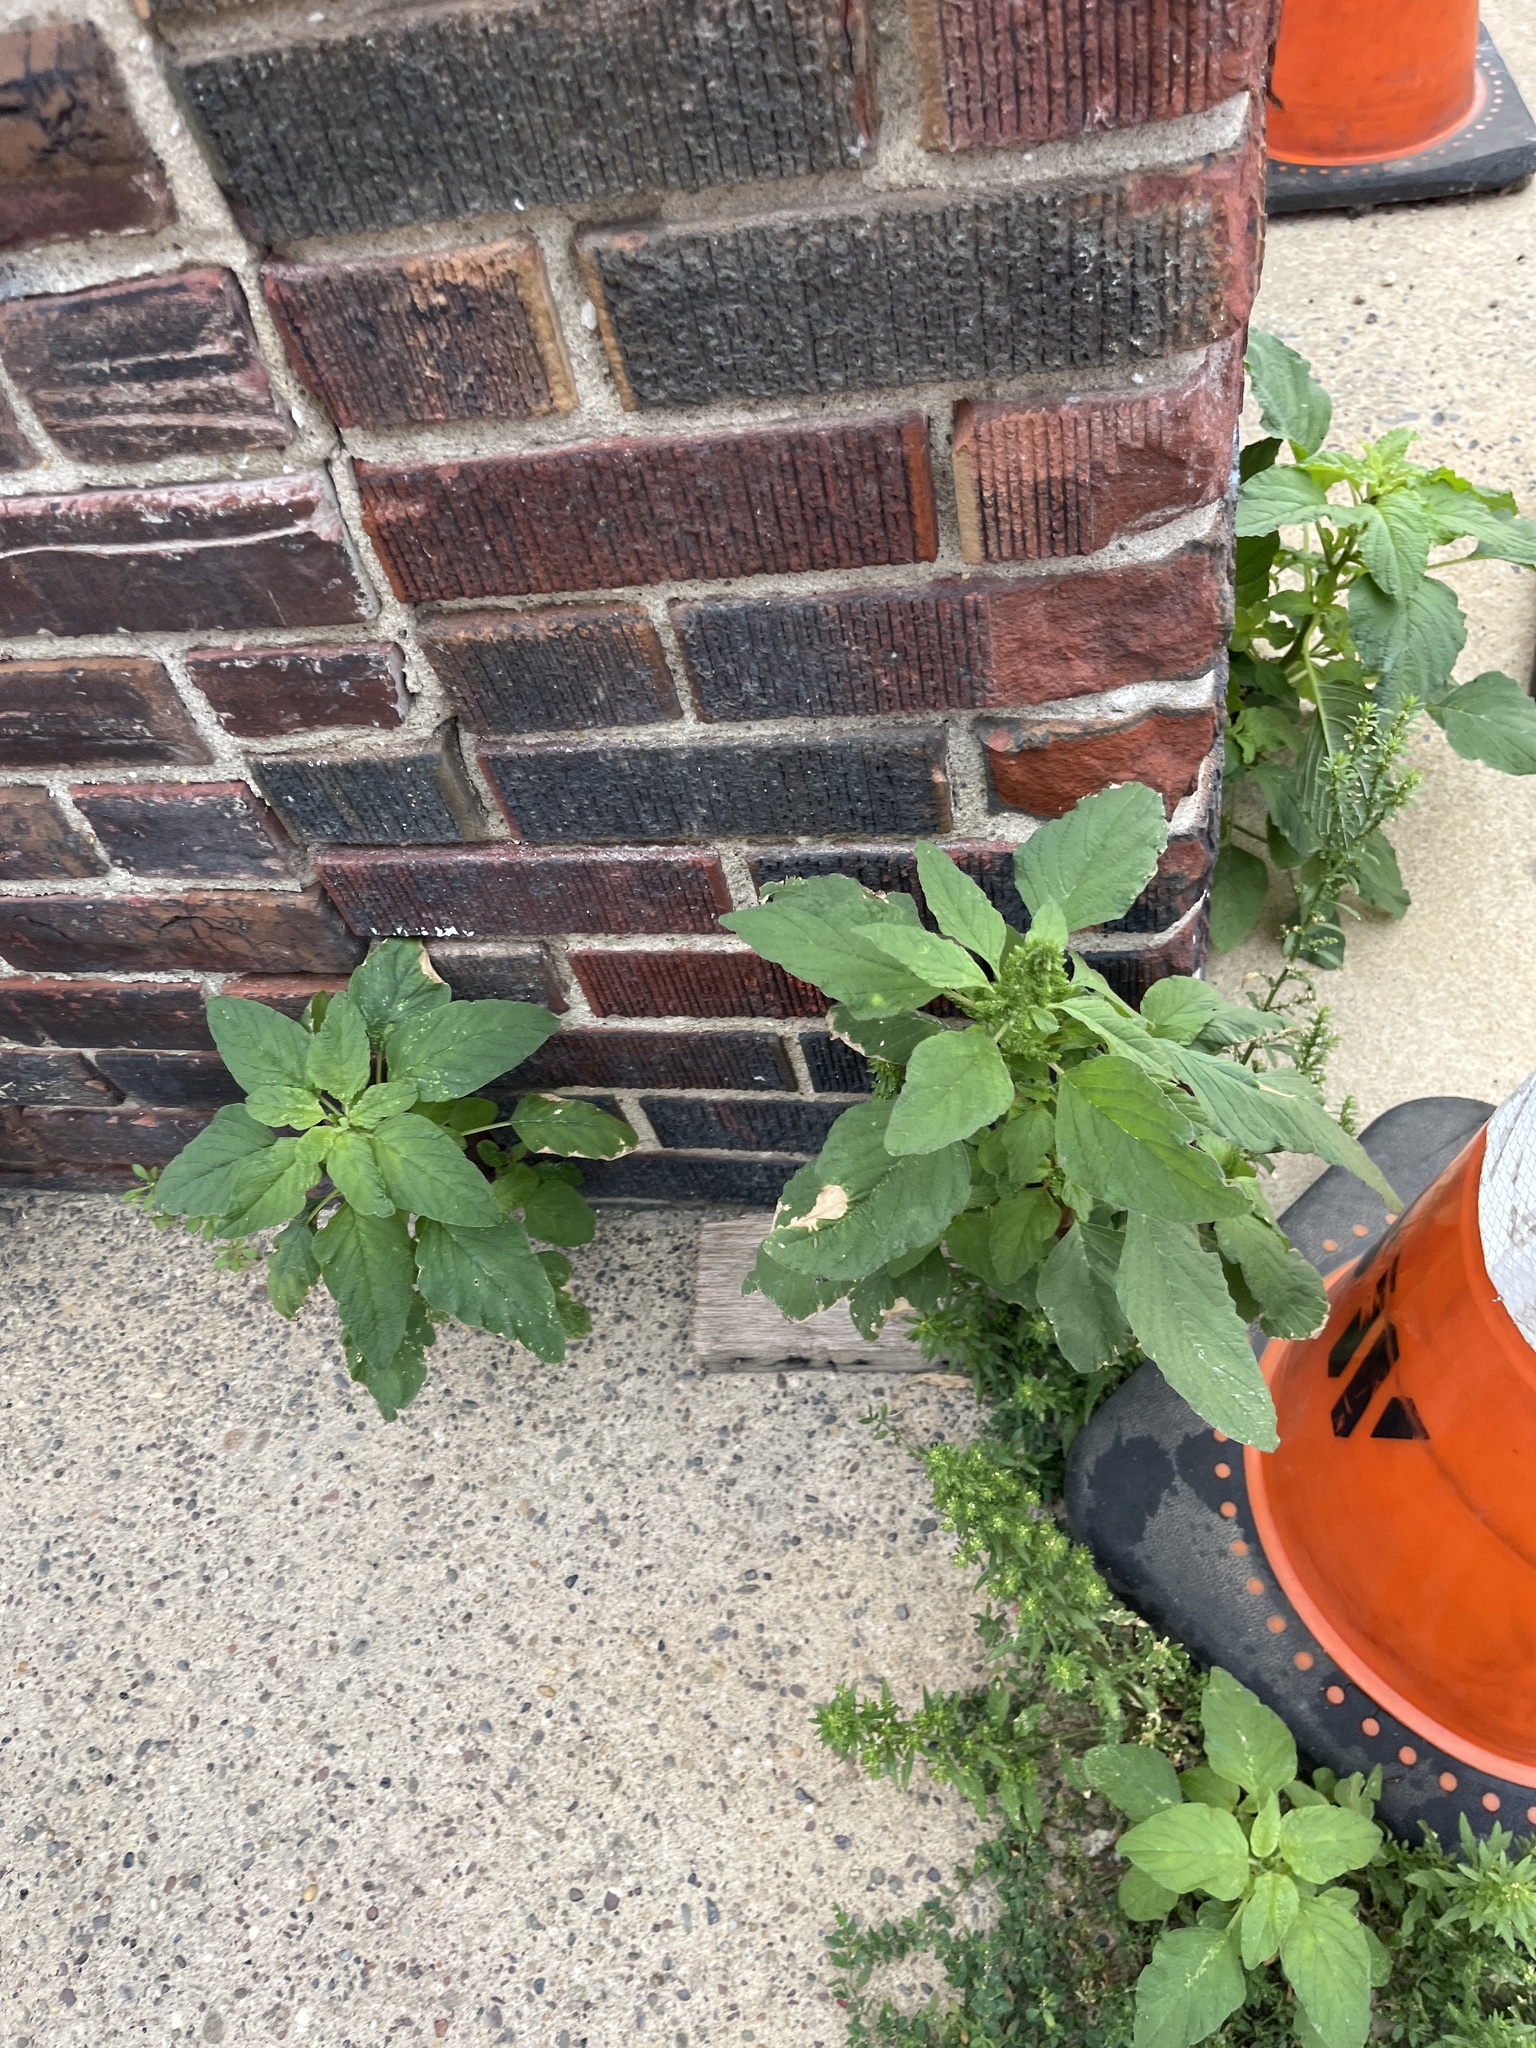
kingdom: Plantae
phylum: Tracheophyta
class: Magnoliopsida
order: Caryophyllales
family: Amaranthaceae
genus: Dysphania
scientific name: Dysphania ambrosioides
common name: Wormseed
